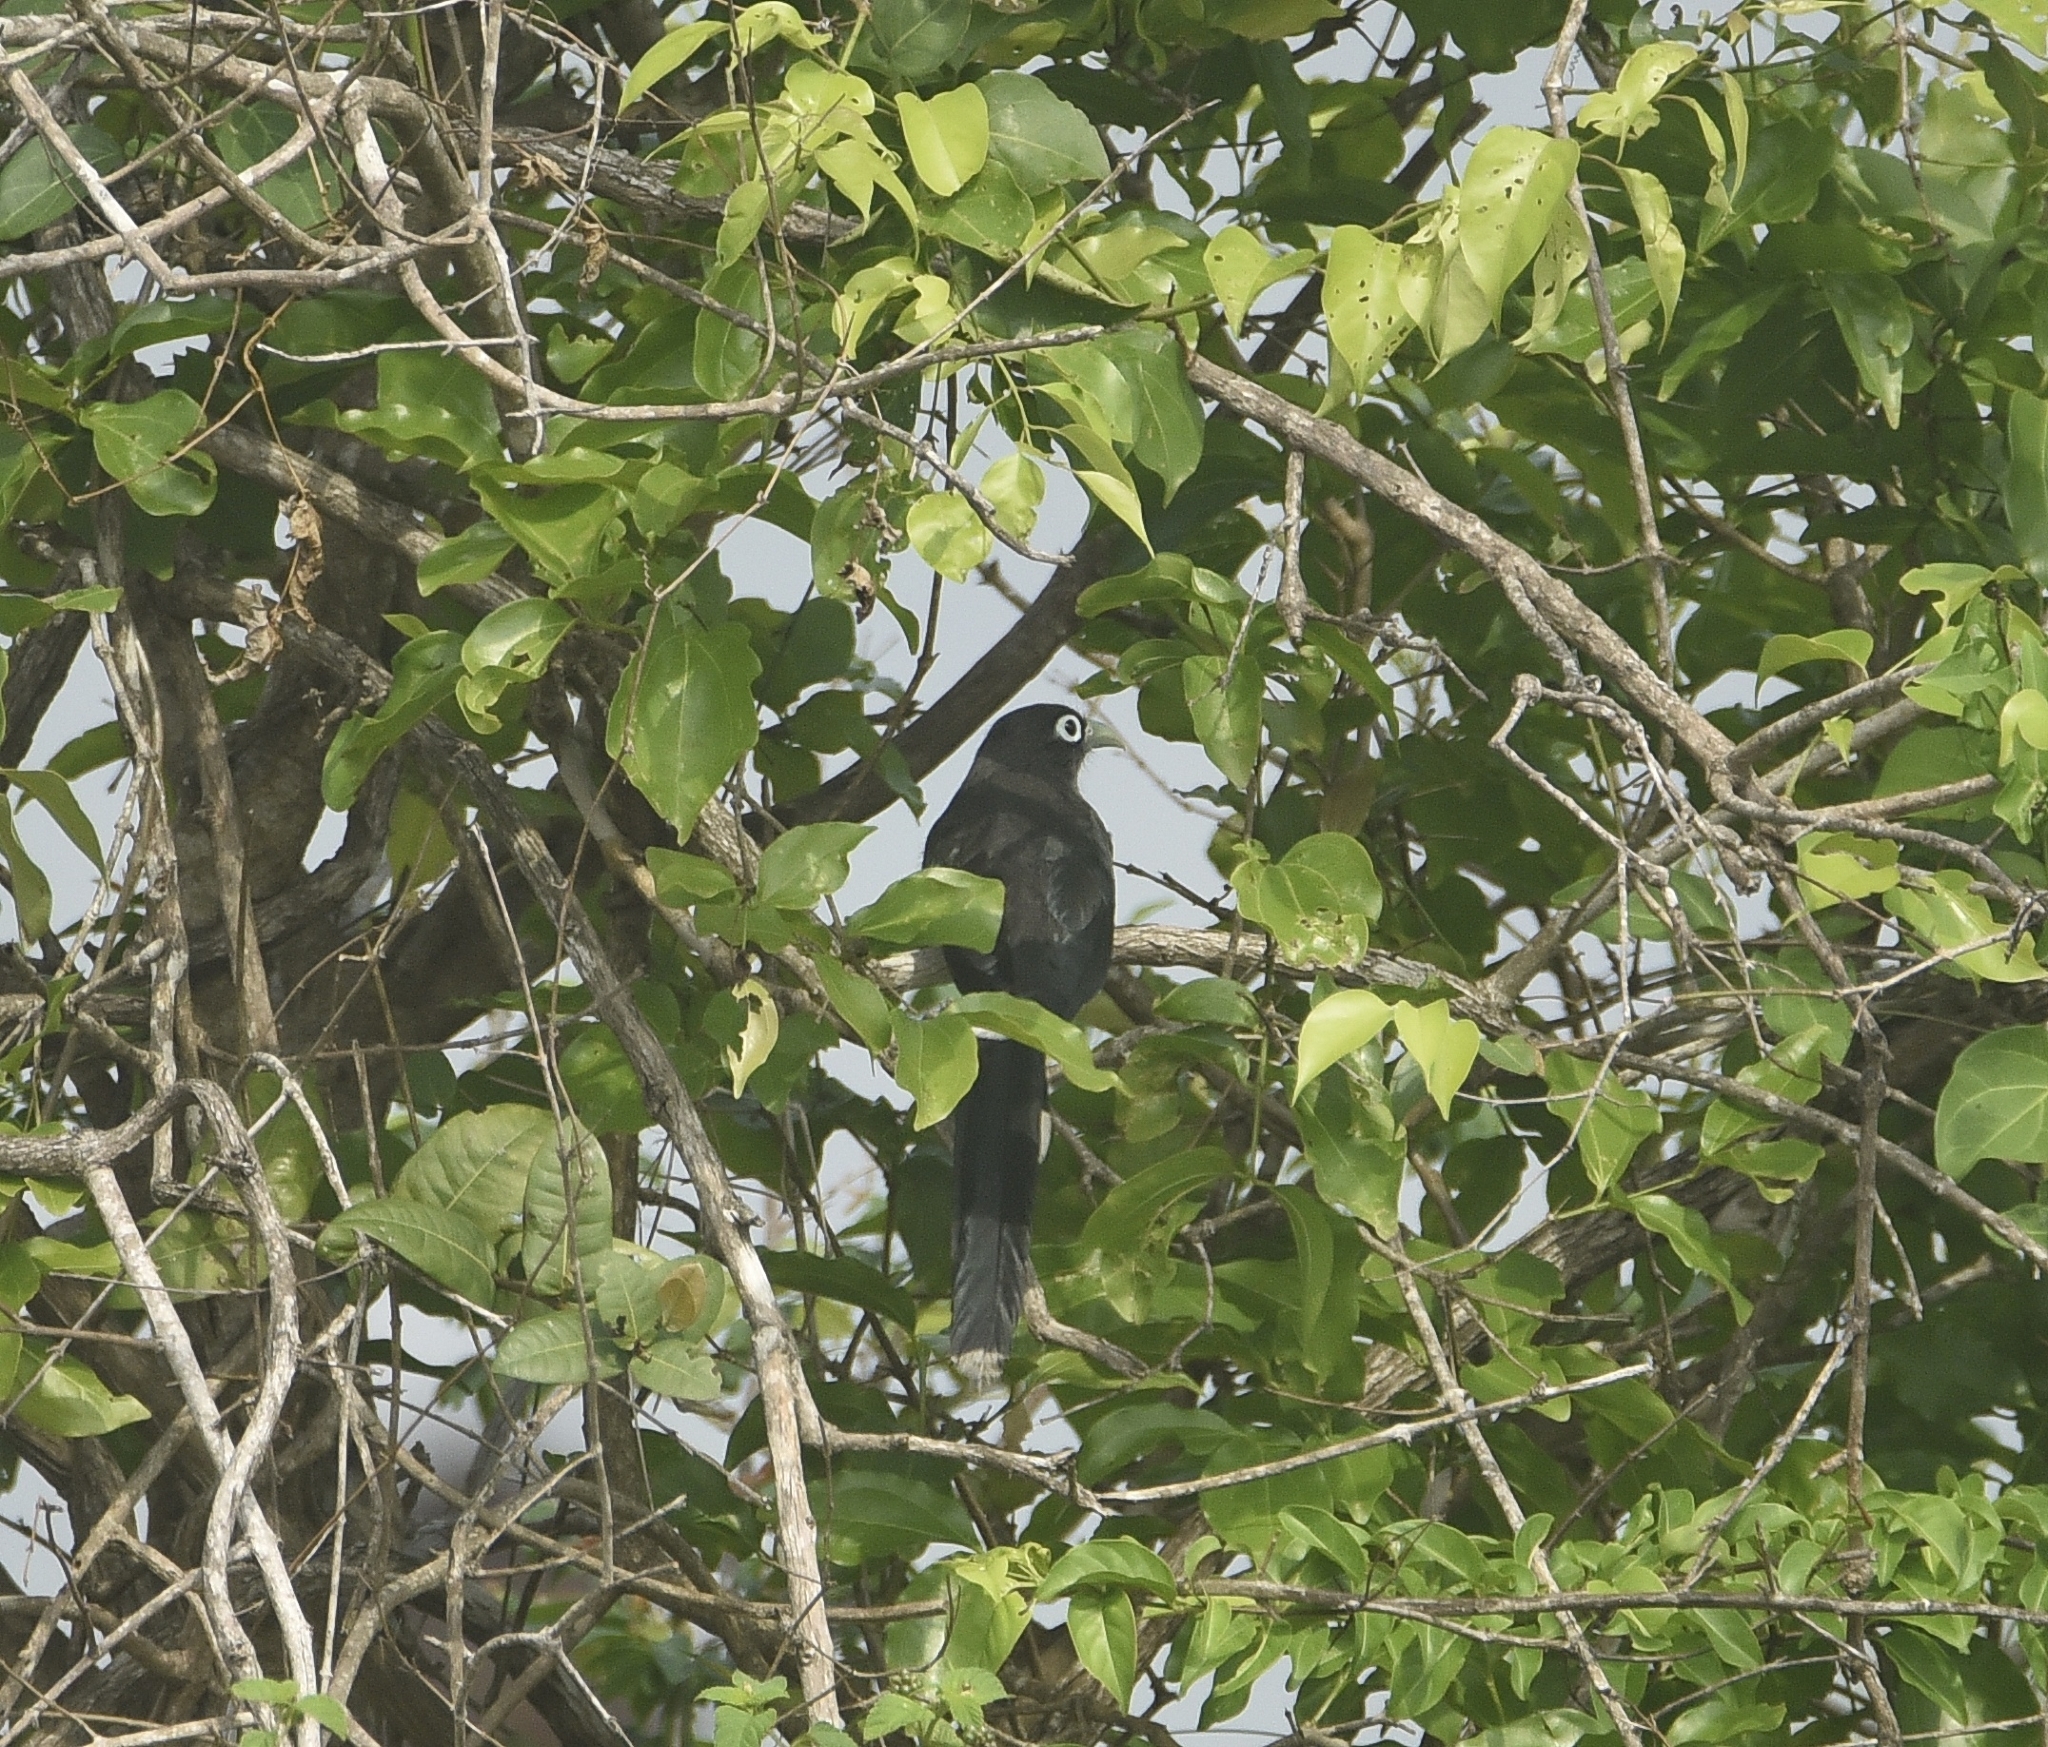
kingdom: Animalia
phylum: Chordata
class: Aves
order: Cuculiformes
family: Cuculidae
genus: Rhopodytes
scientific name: Rhopodytes viridirostris
